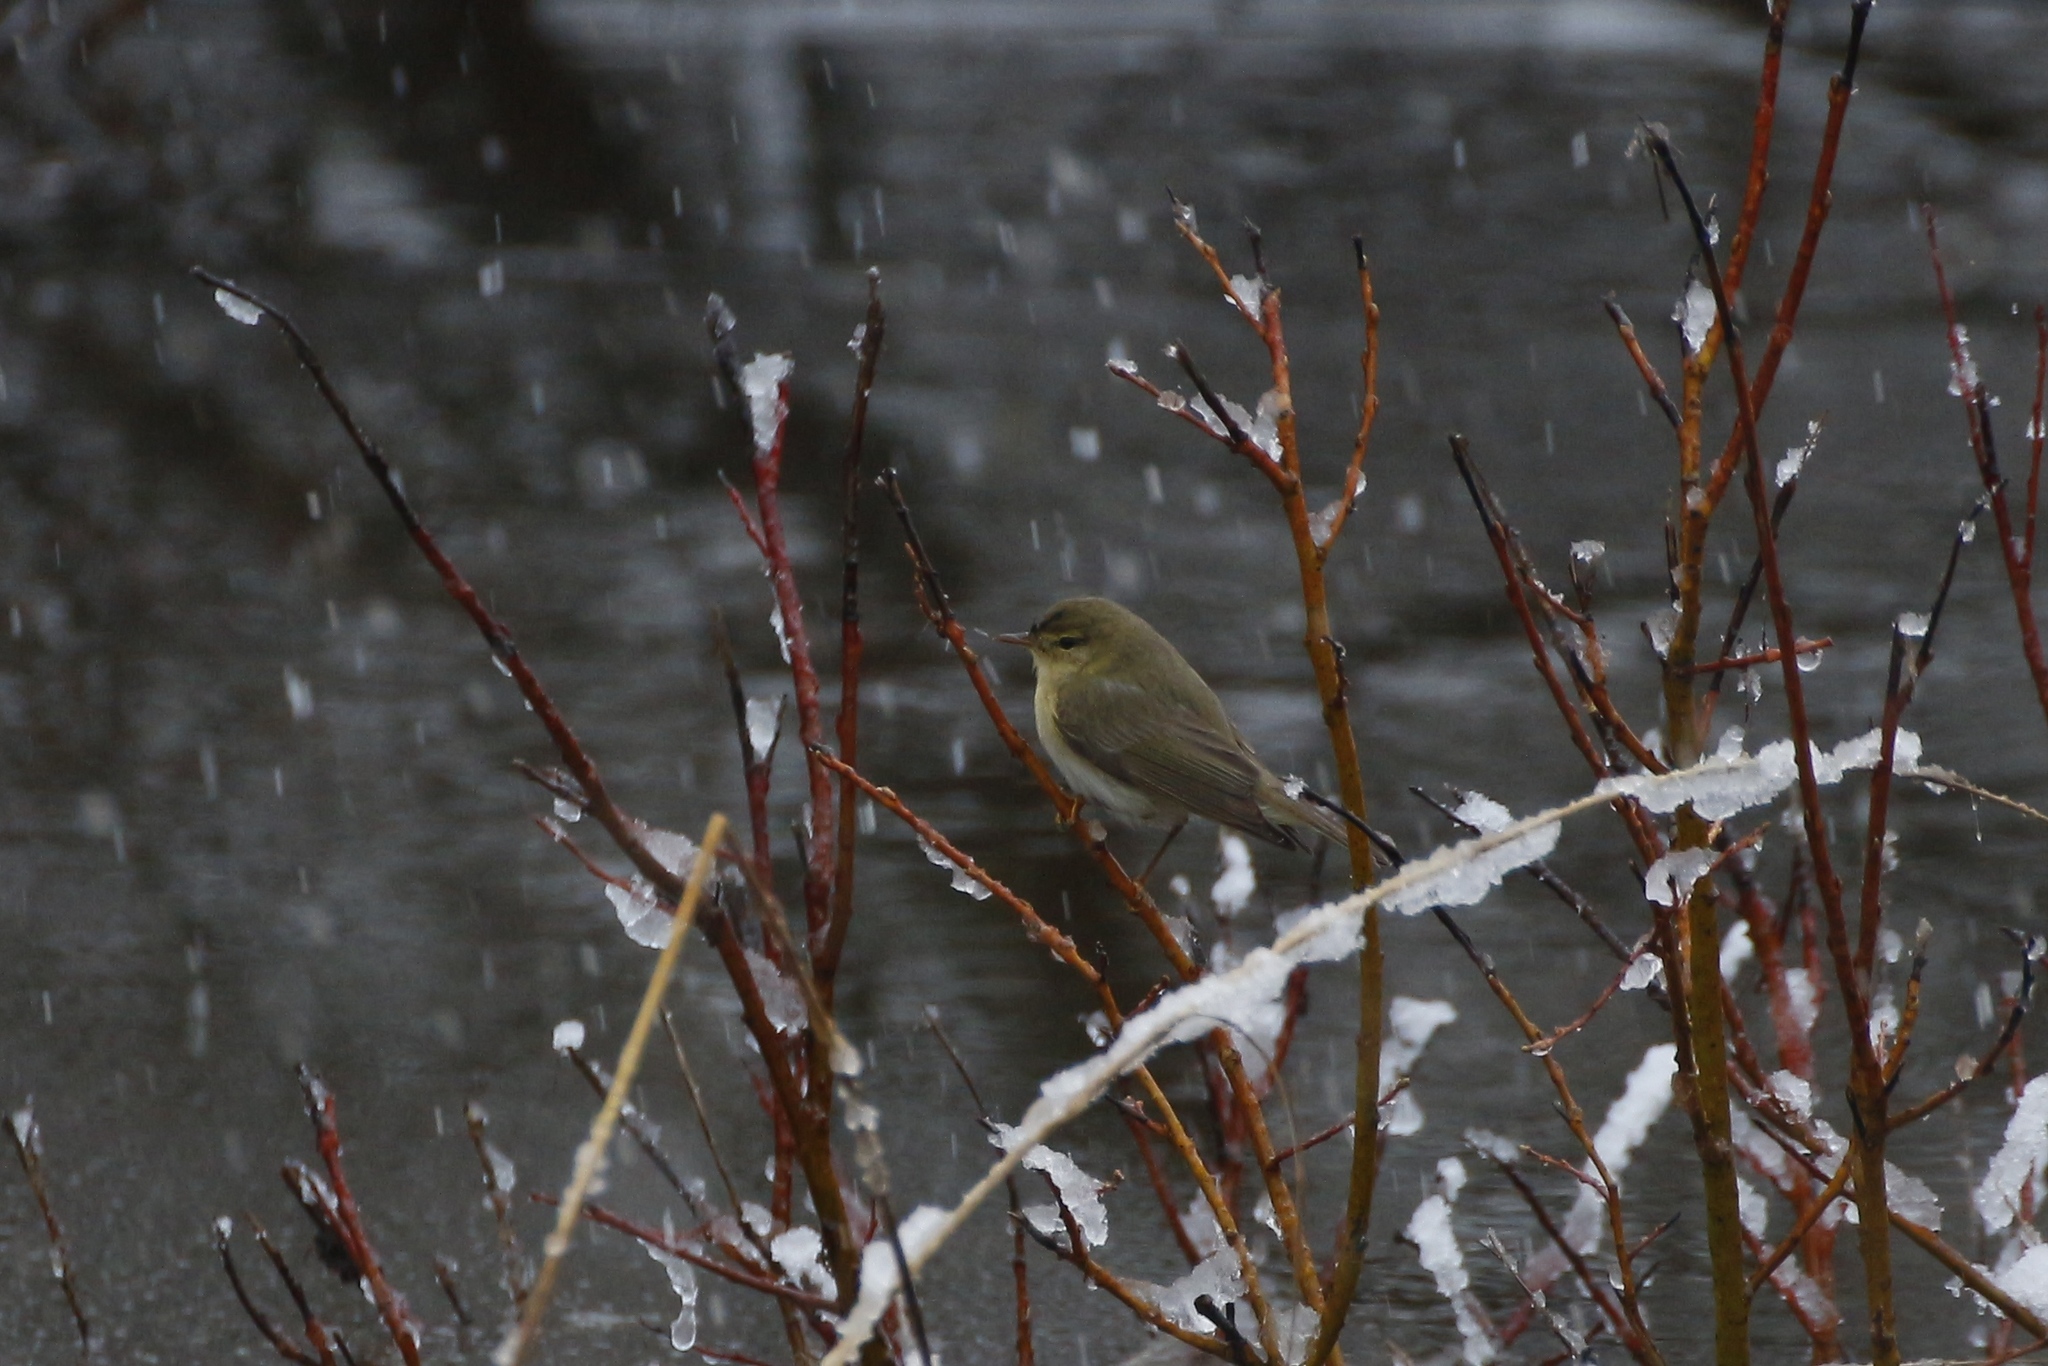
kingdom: Animalia
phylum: Chordata
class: Aves
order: Passeriformes
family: Phylloscopidae
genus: Phylloscopus
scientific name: Phylloscopus trochilus
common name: Willow warbler
